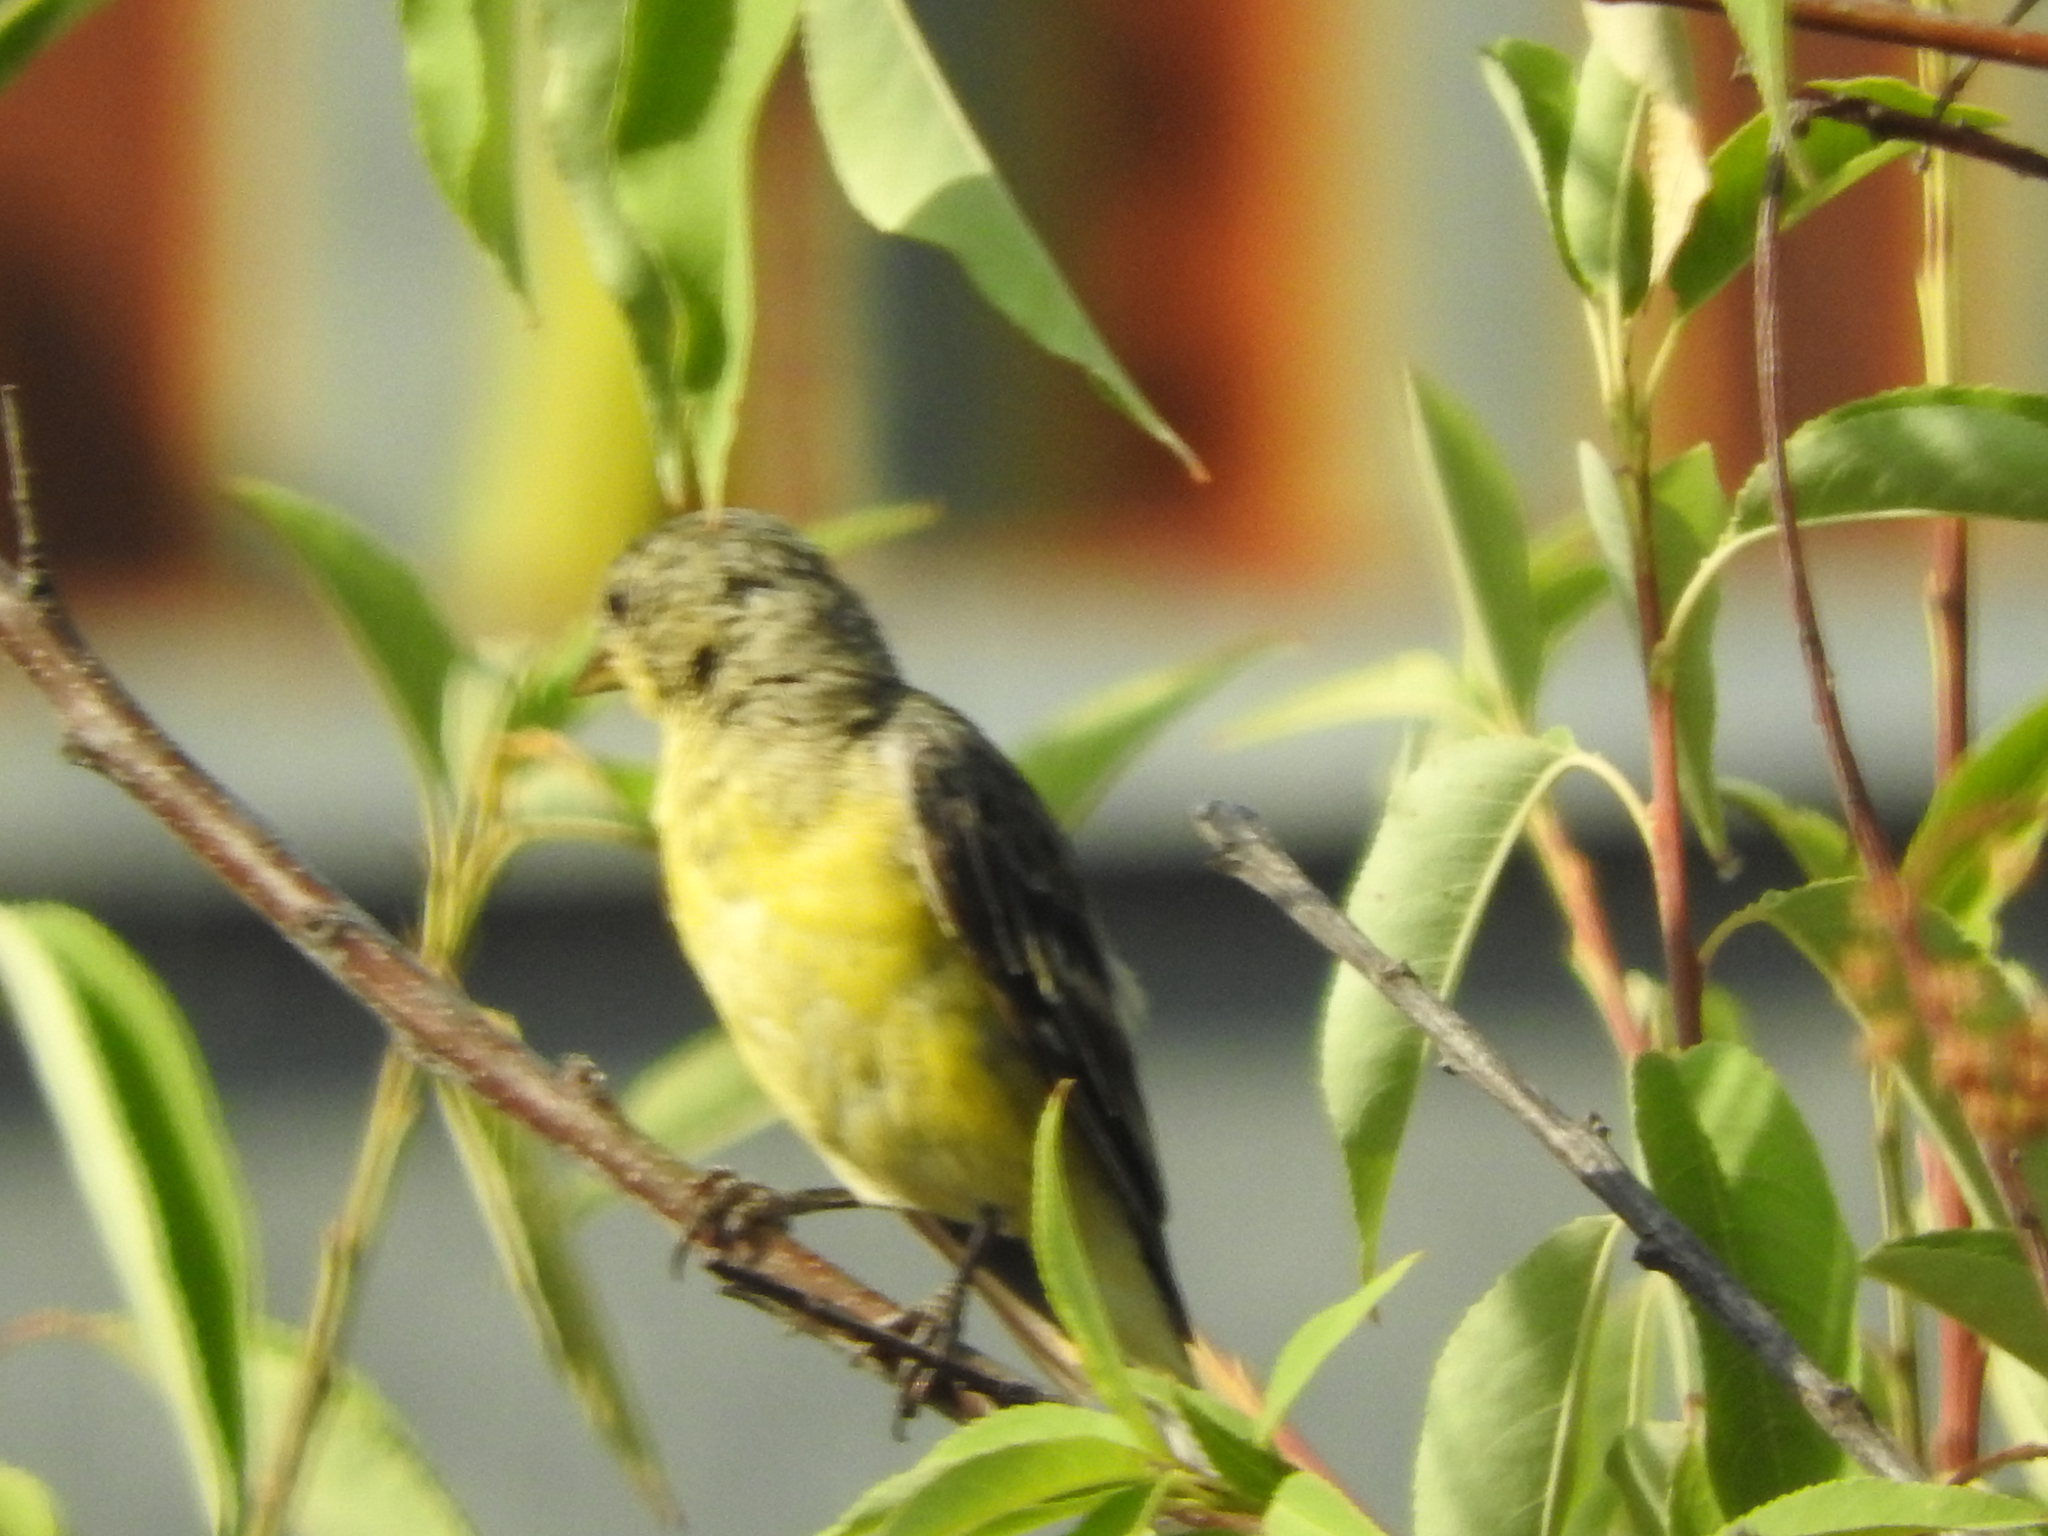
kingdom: Animalia
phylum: Chordata
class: Aves
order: Passeriformes
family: Fringillidae
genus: Spinus
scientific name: Spinus psaltria
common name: Lesser goldfinch
